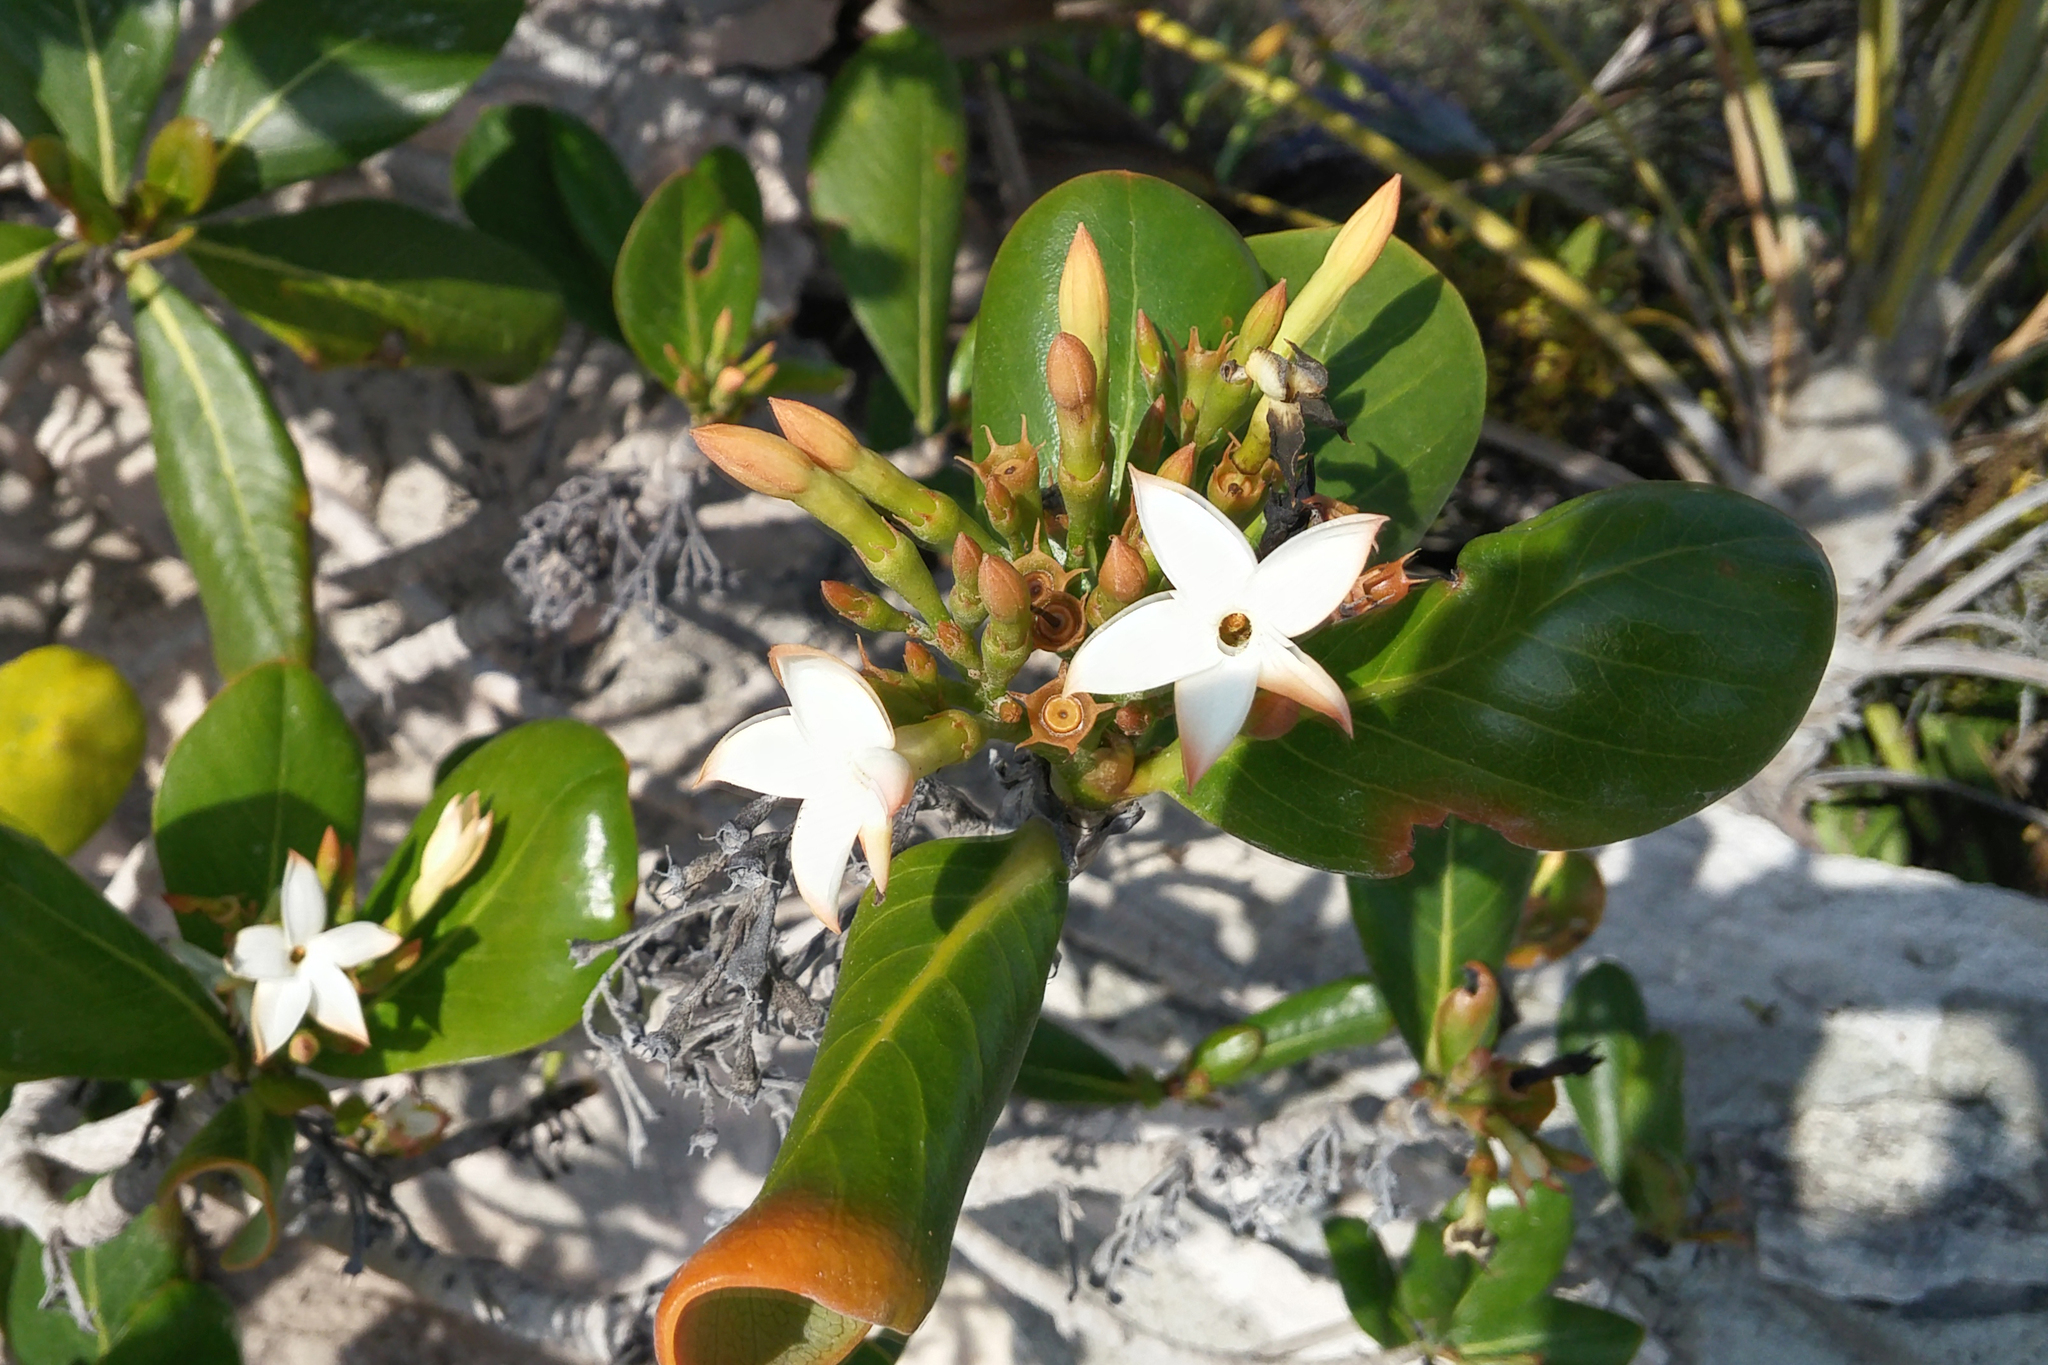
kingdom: Plantae
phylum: Tracheophyta
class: Magnoliopsida
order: Gentianales
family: Rubiaceae
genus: Casasia
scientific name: Casasia clusiifolia
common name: Seven-year apple
